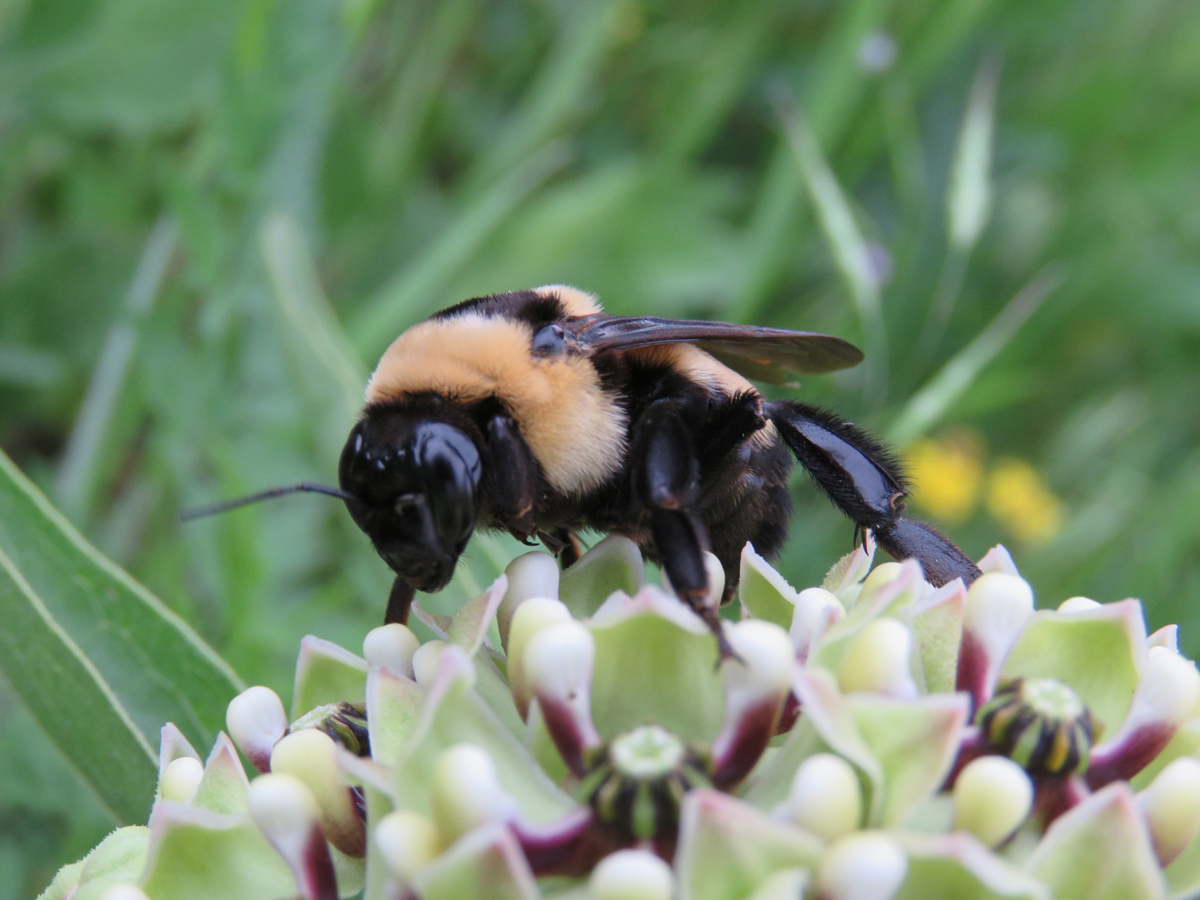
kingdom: Animalia
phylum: Arthropoda
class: Insecta
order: Hymenoptera
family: Apidae
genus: Bombus
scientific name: Bombus fraternus
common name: Southern plains bumble bee
